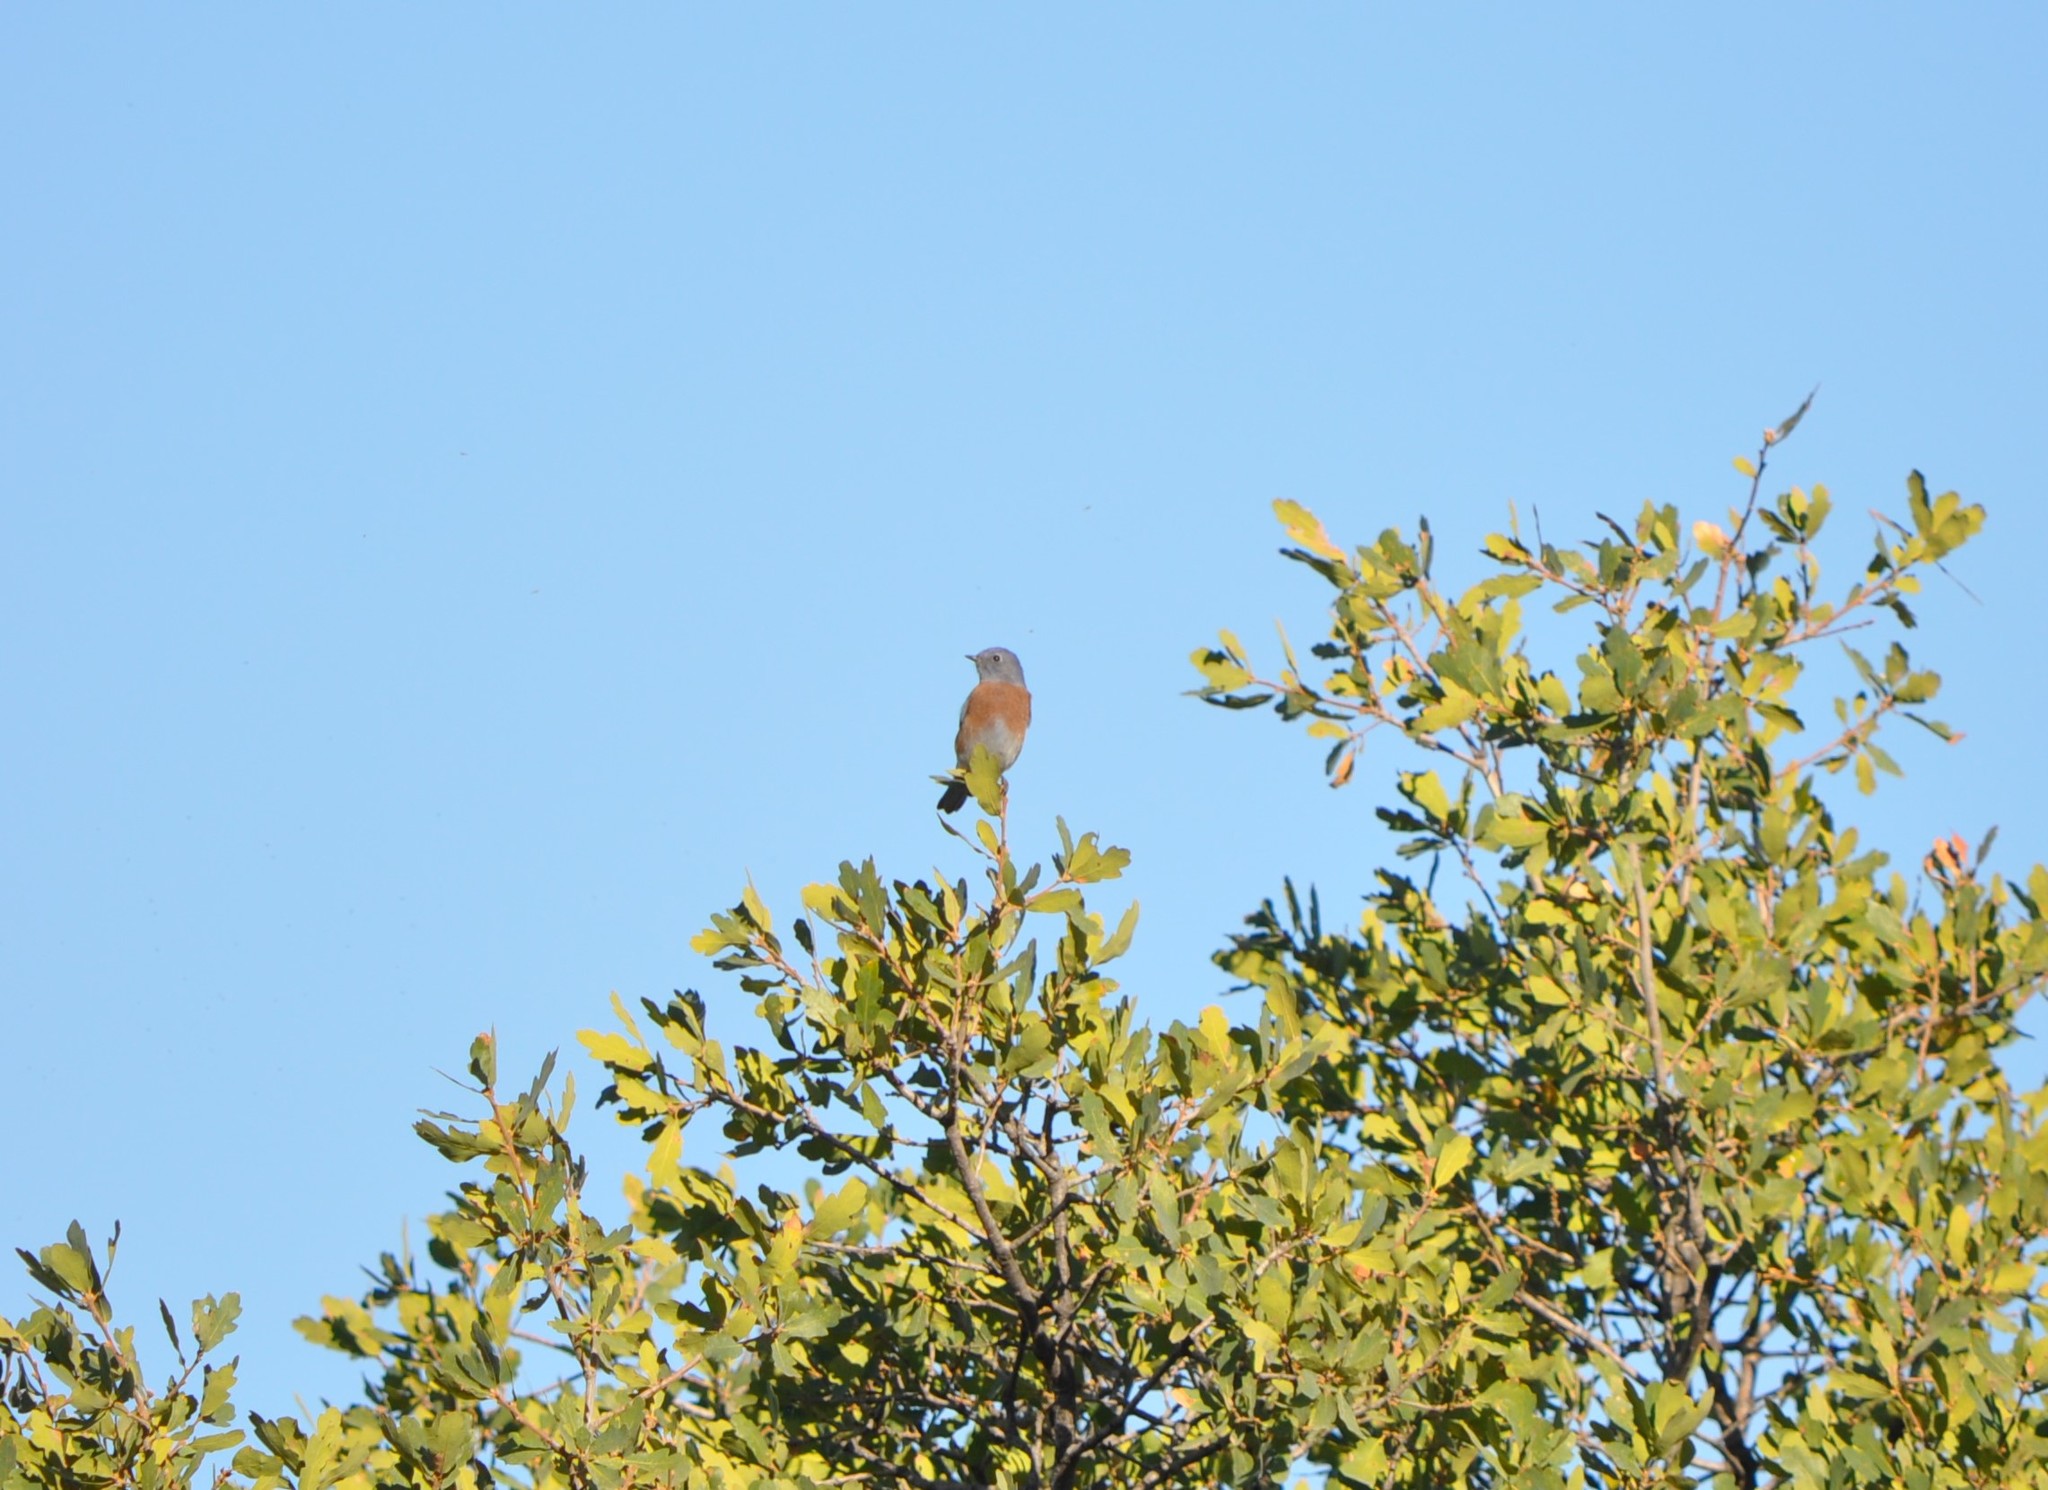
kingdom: Animalia
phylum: Chordata
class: Aves
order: Passeriformes
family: Turdidae
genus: Sialia
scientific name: Sialia mexicana
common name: Western bluebird
